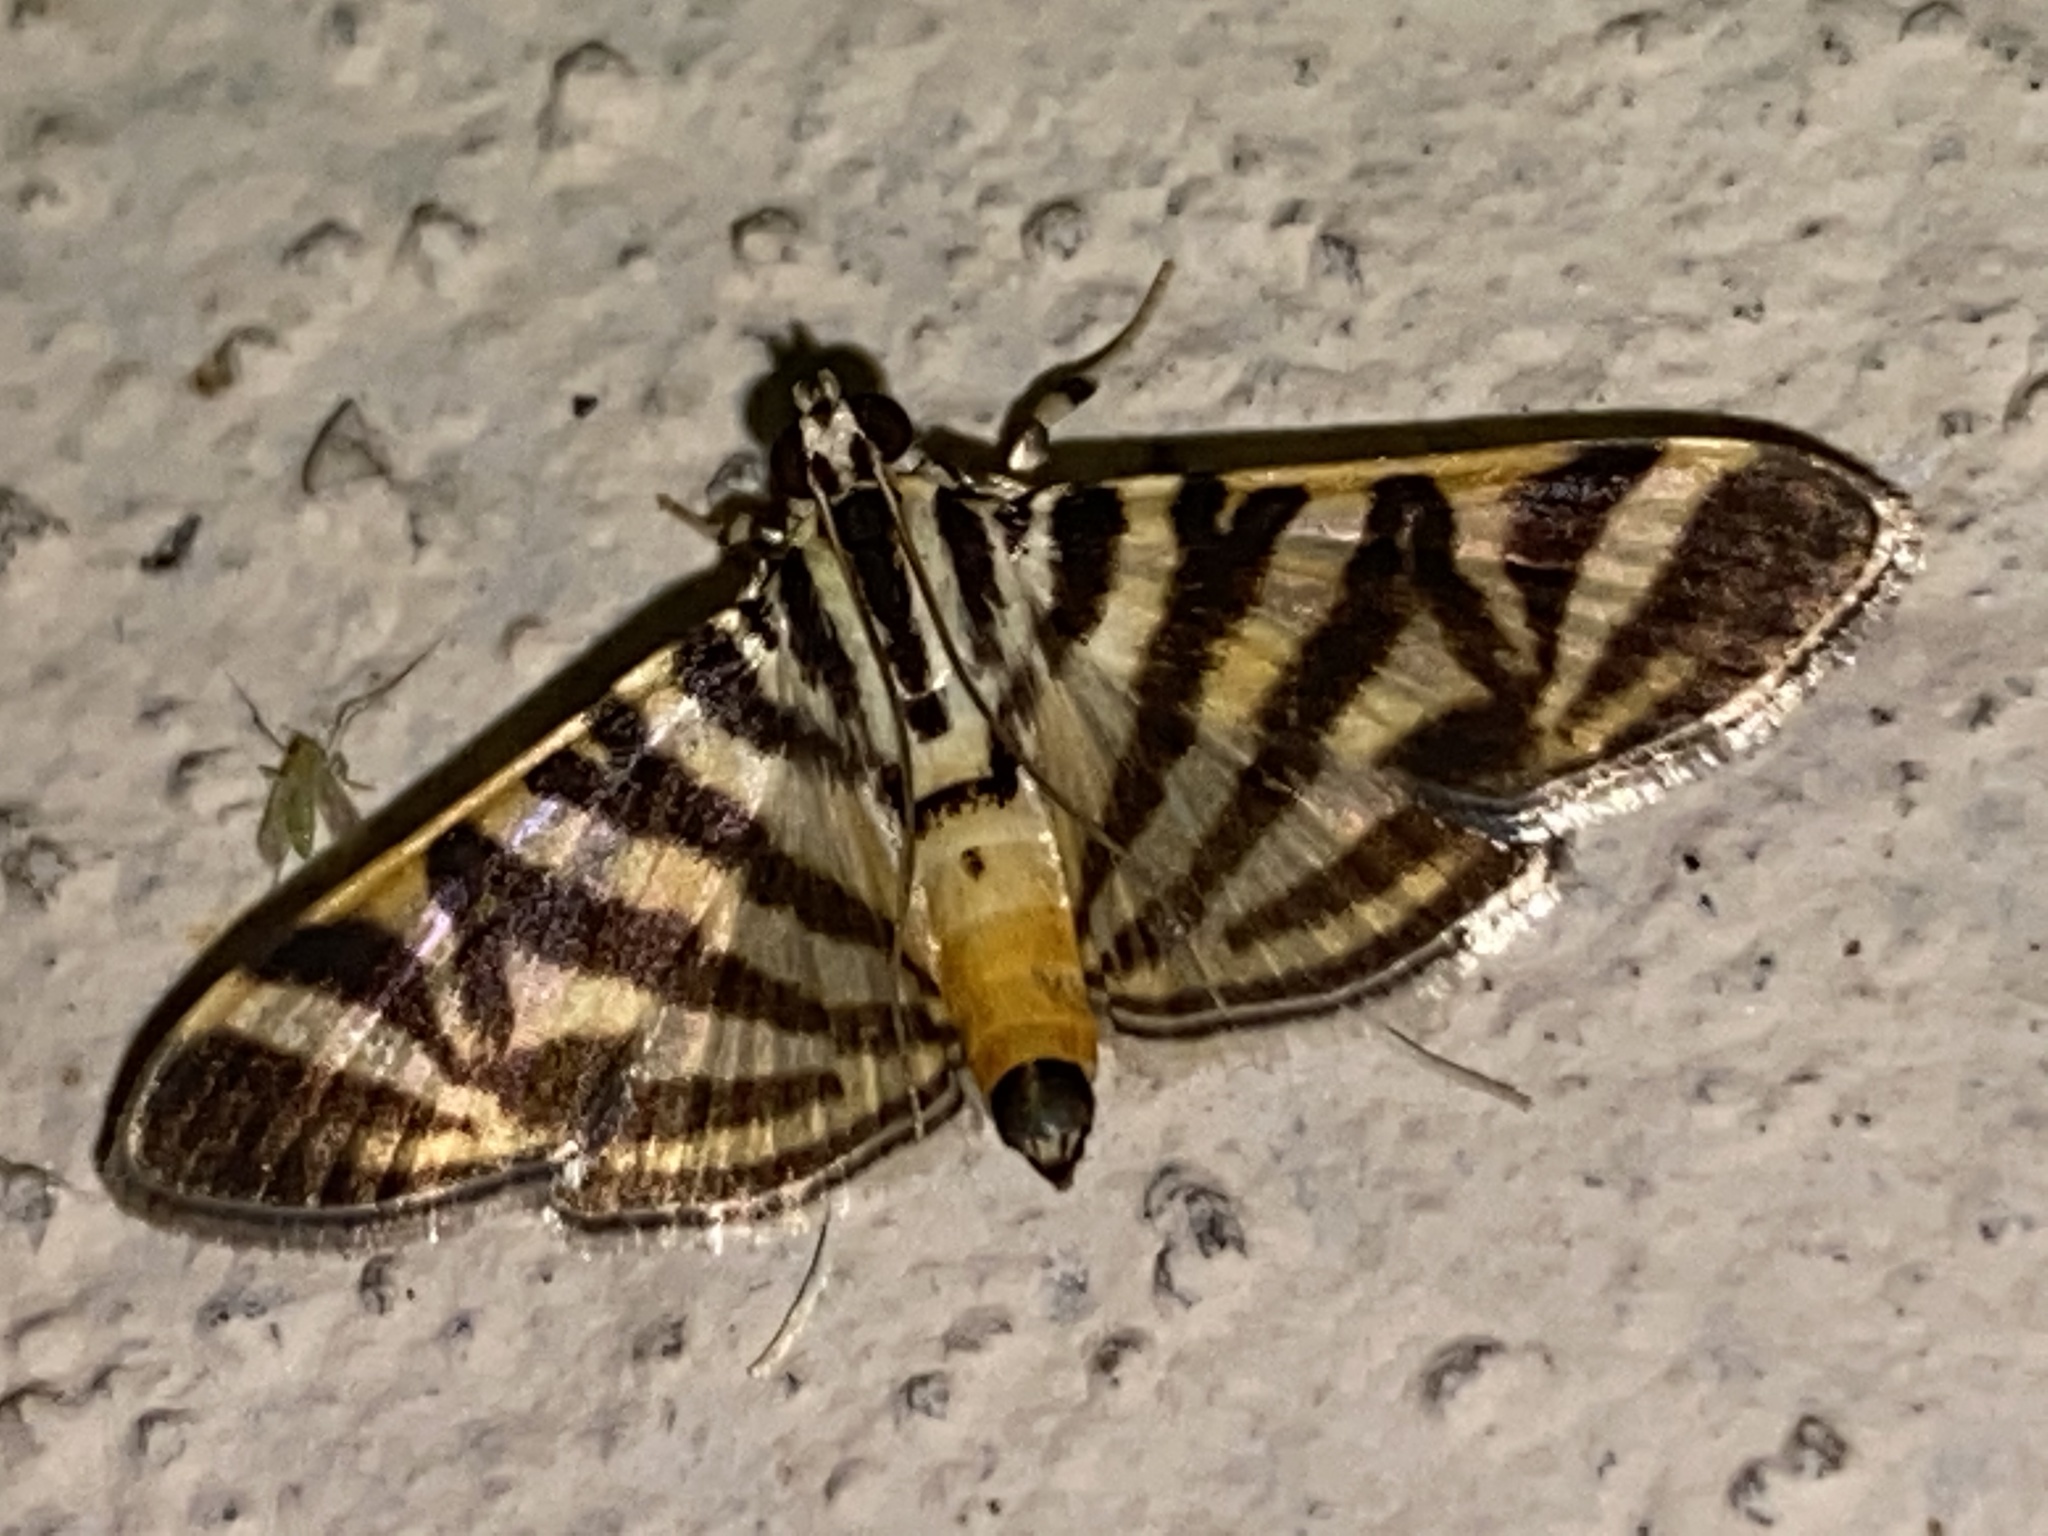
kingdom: Animalia
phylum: Arthropoda
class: Insecta
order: Lepidoptera
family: Crambidae
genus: Zebronia
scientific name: Zebronia Spilomela discordens
